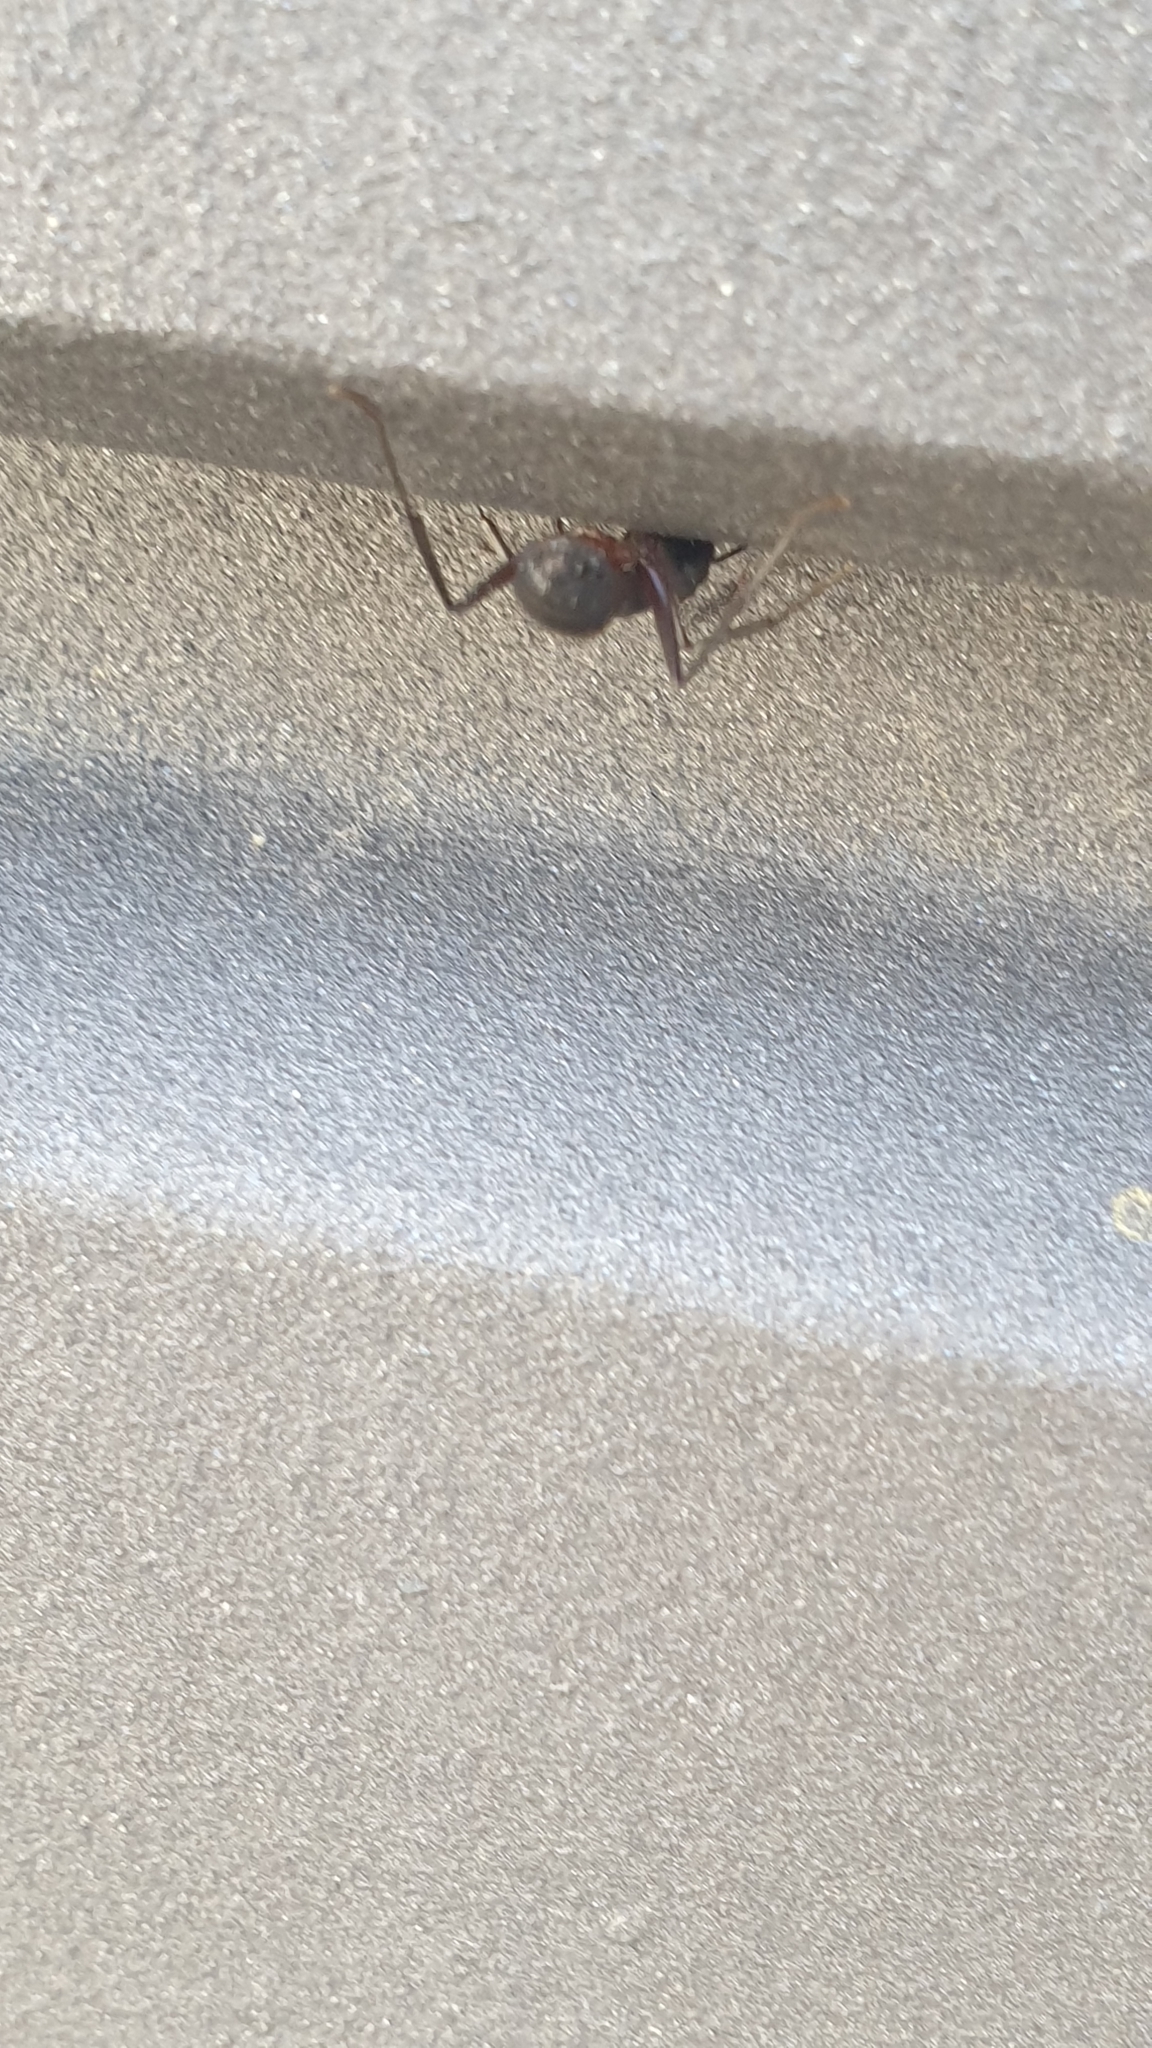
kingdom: Animalia
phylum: Arthropoda
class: Insecta
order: Hymenoptera
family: Formicidae
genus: Camponotus
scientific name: Camponotus cruentatus
